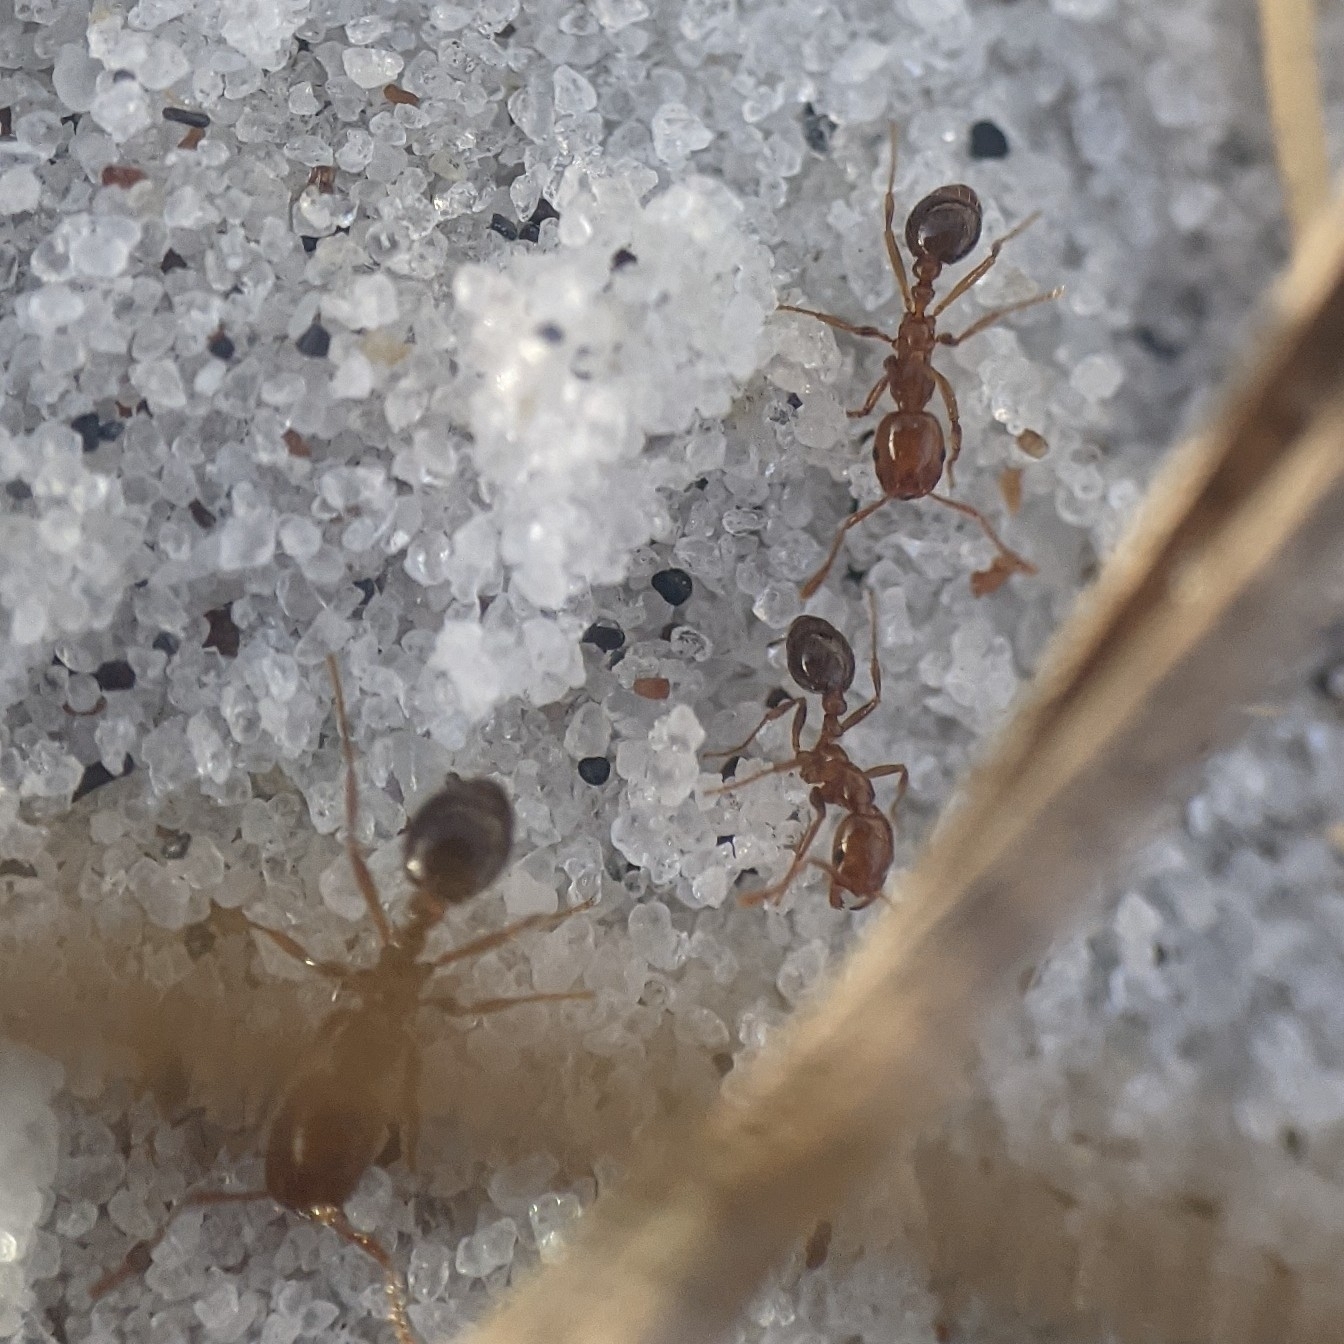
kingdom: Animalia
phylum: Arthropoda
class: Insecta
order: Hymenoptera
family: Formicidae
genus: Solenopsis
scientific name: Solenopsis invicta
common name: Red imported fire ant
